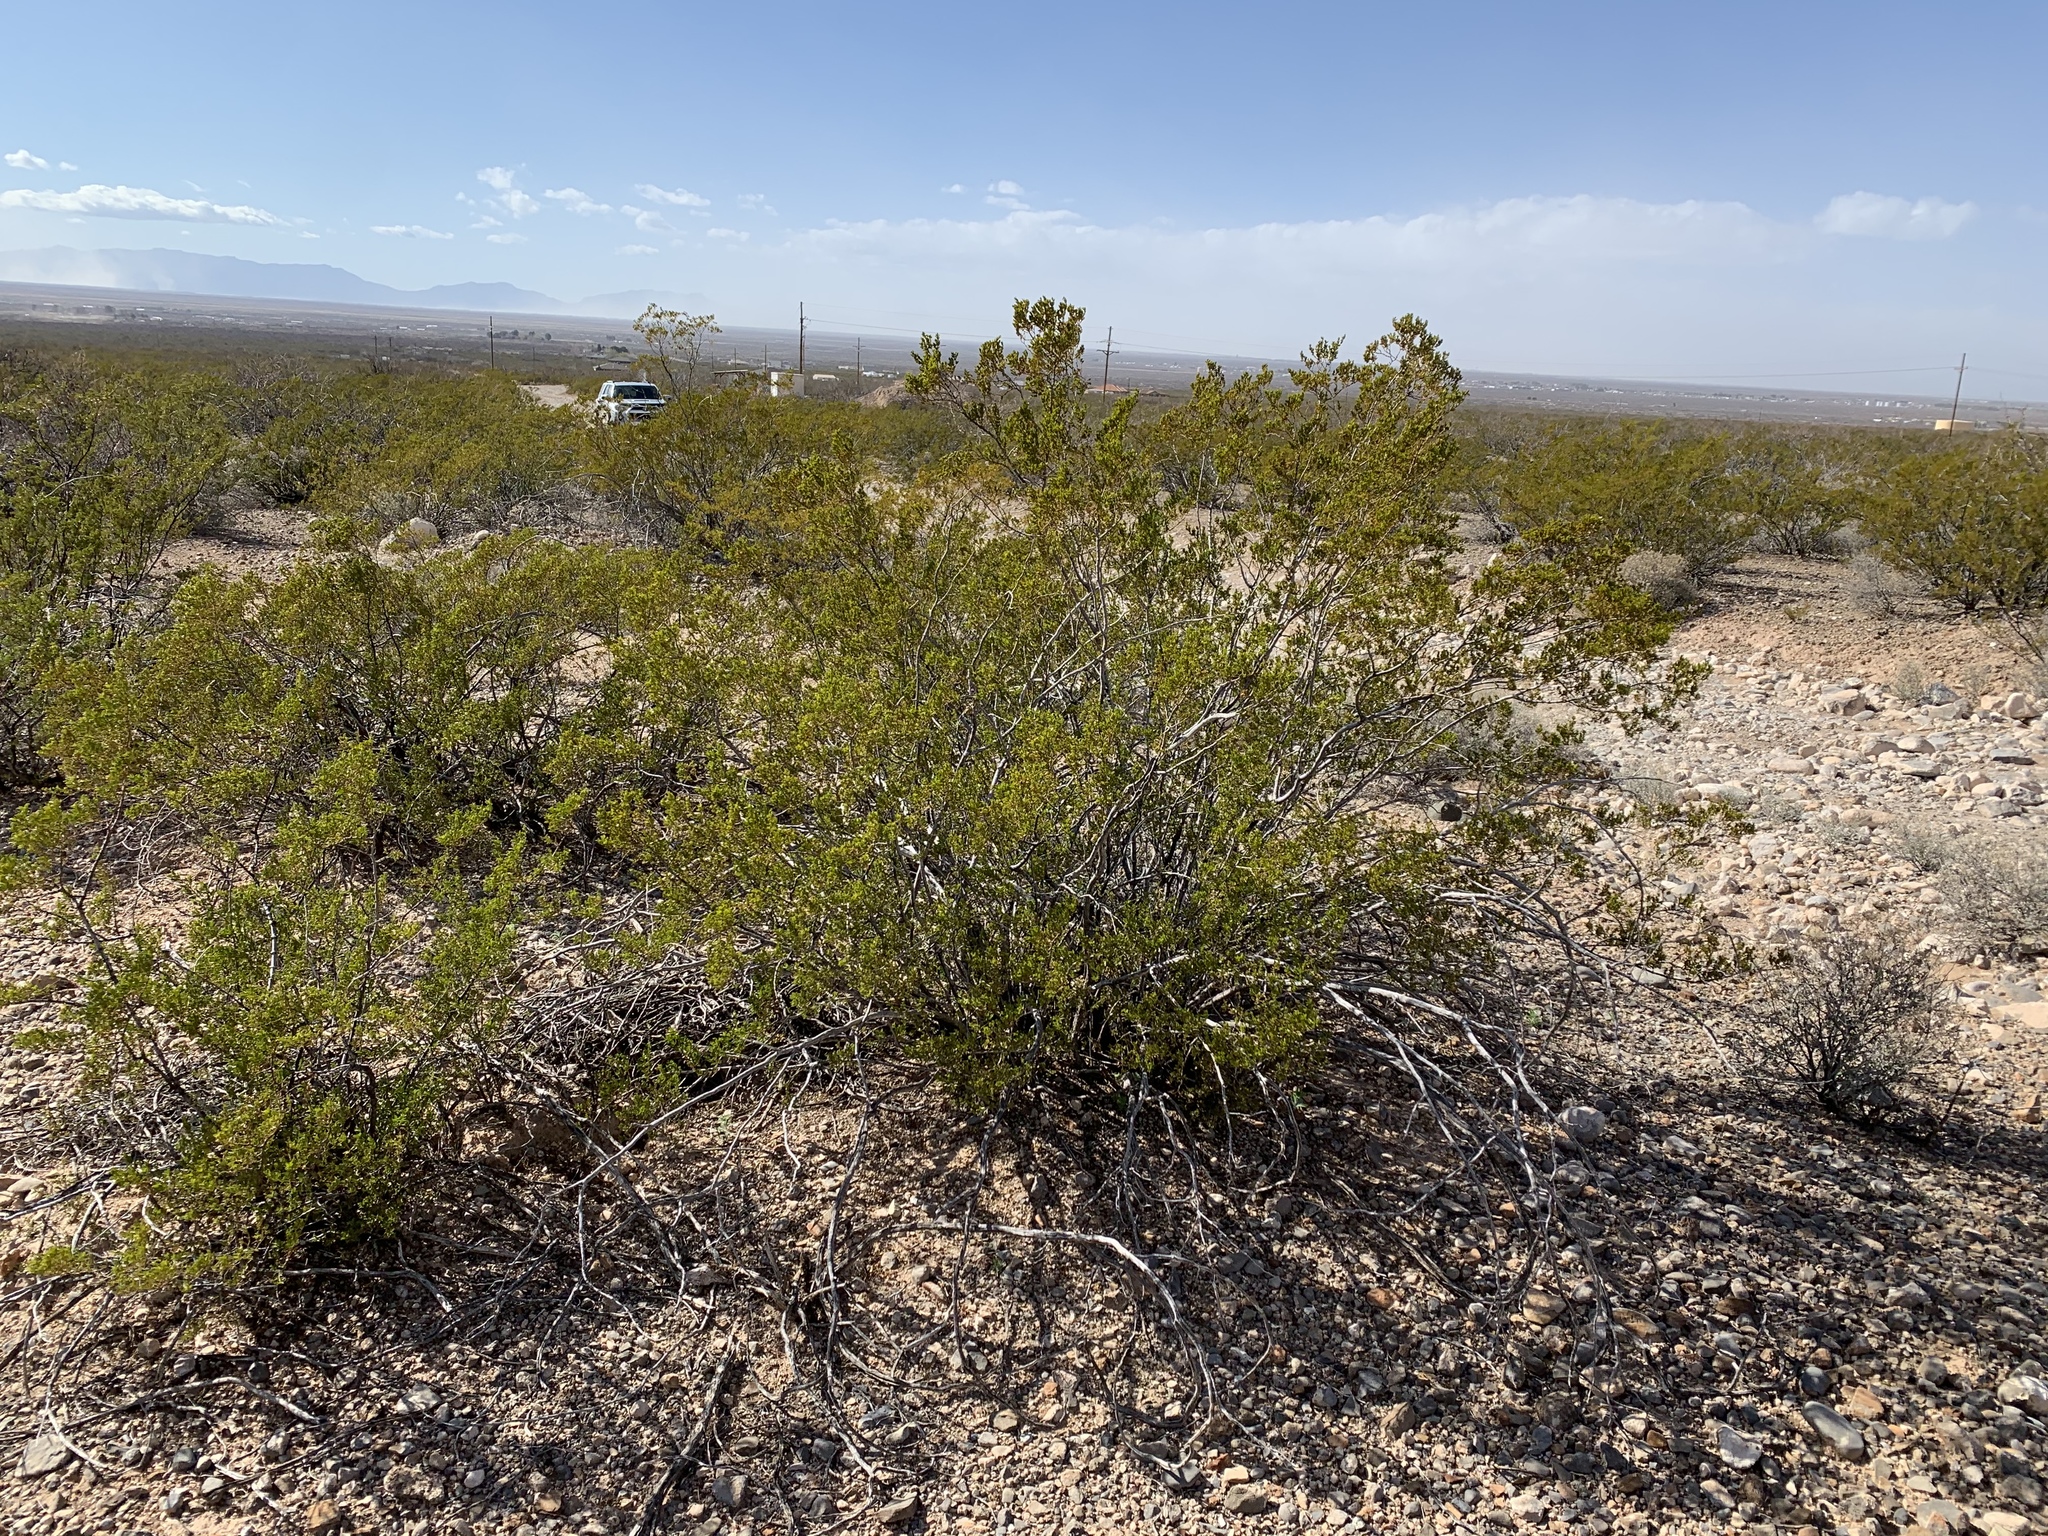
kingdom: Plantae
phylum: Tracheophyta
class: Magnoliopsida
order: Zygophyllales
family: Zygophyllaceae
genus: Larrea
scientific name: Larrea tridentata
